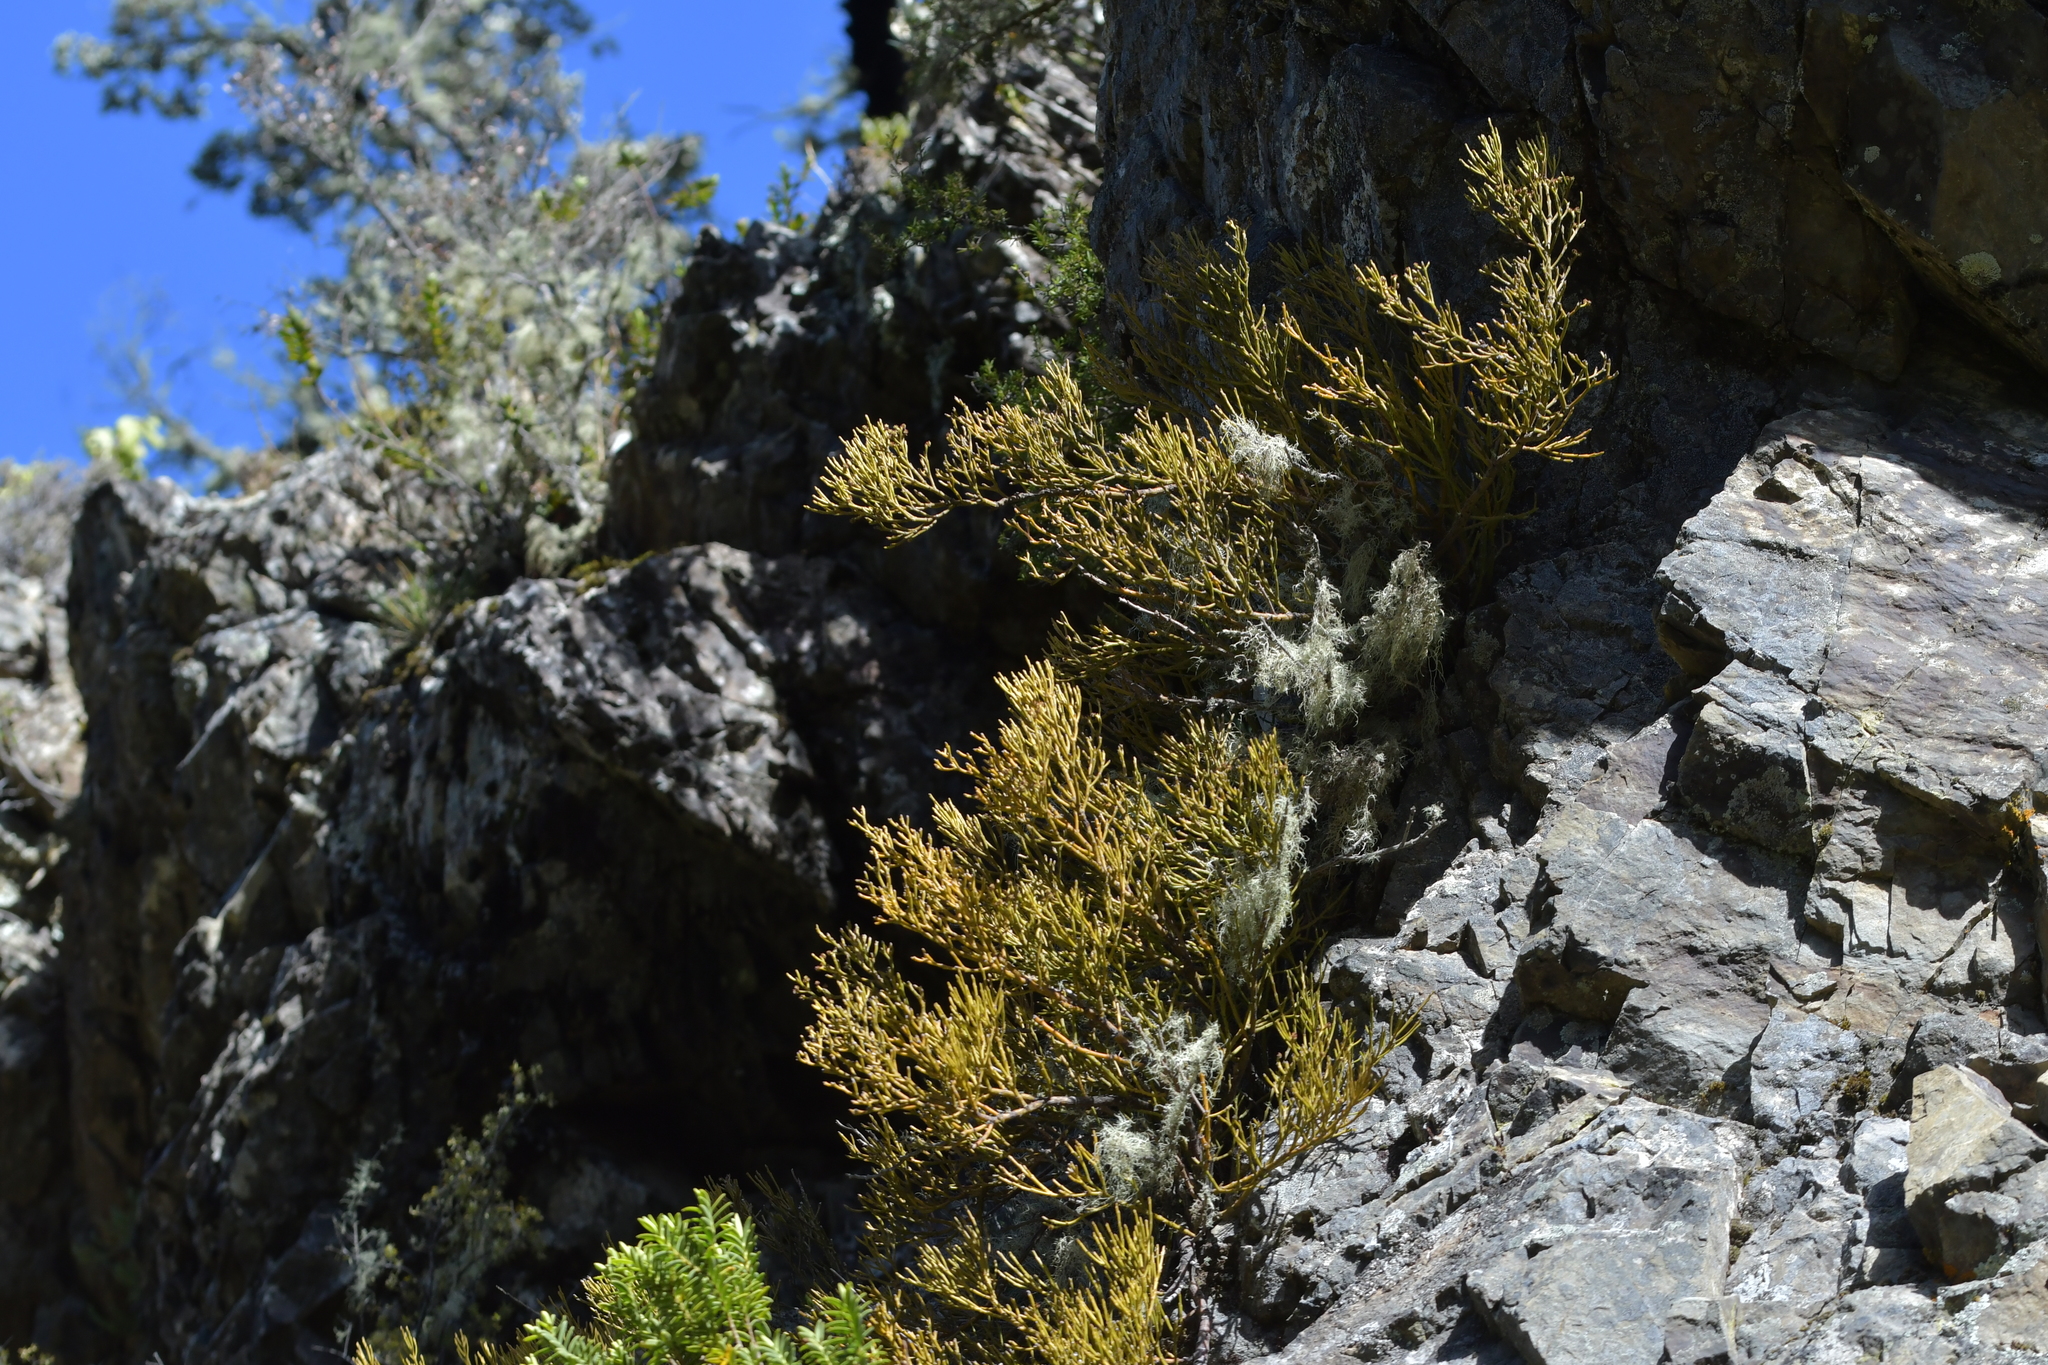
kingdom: Plantae
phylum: Tracheophyta
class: Magnoliopsida
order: Santalales
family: Santalaceae
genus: Exocarpos
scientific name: Exocarpos bidwillii
